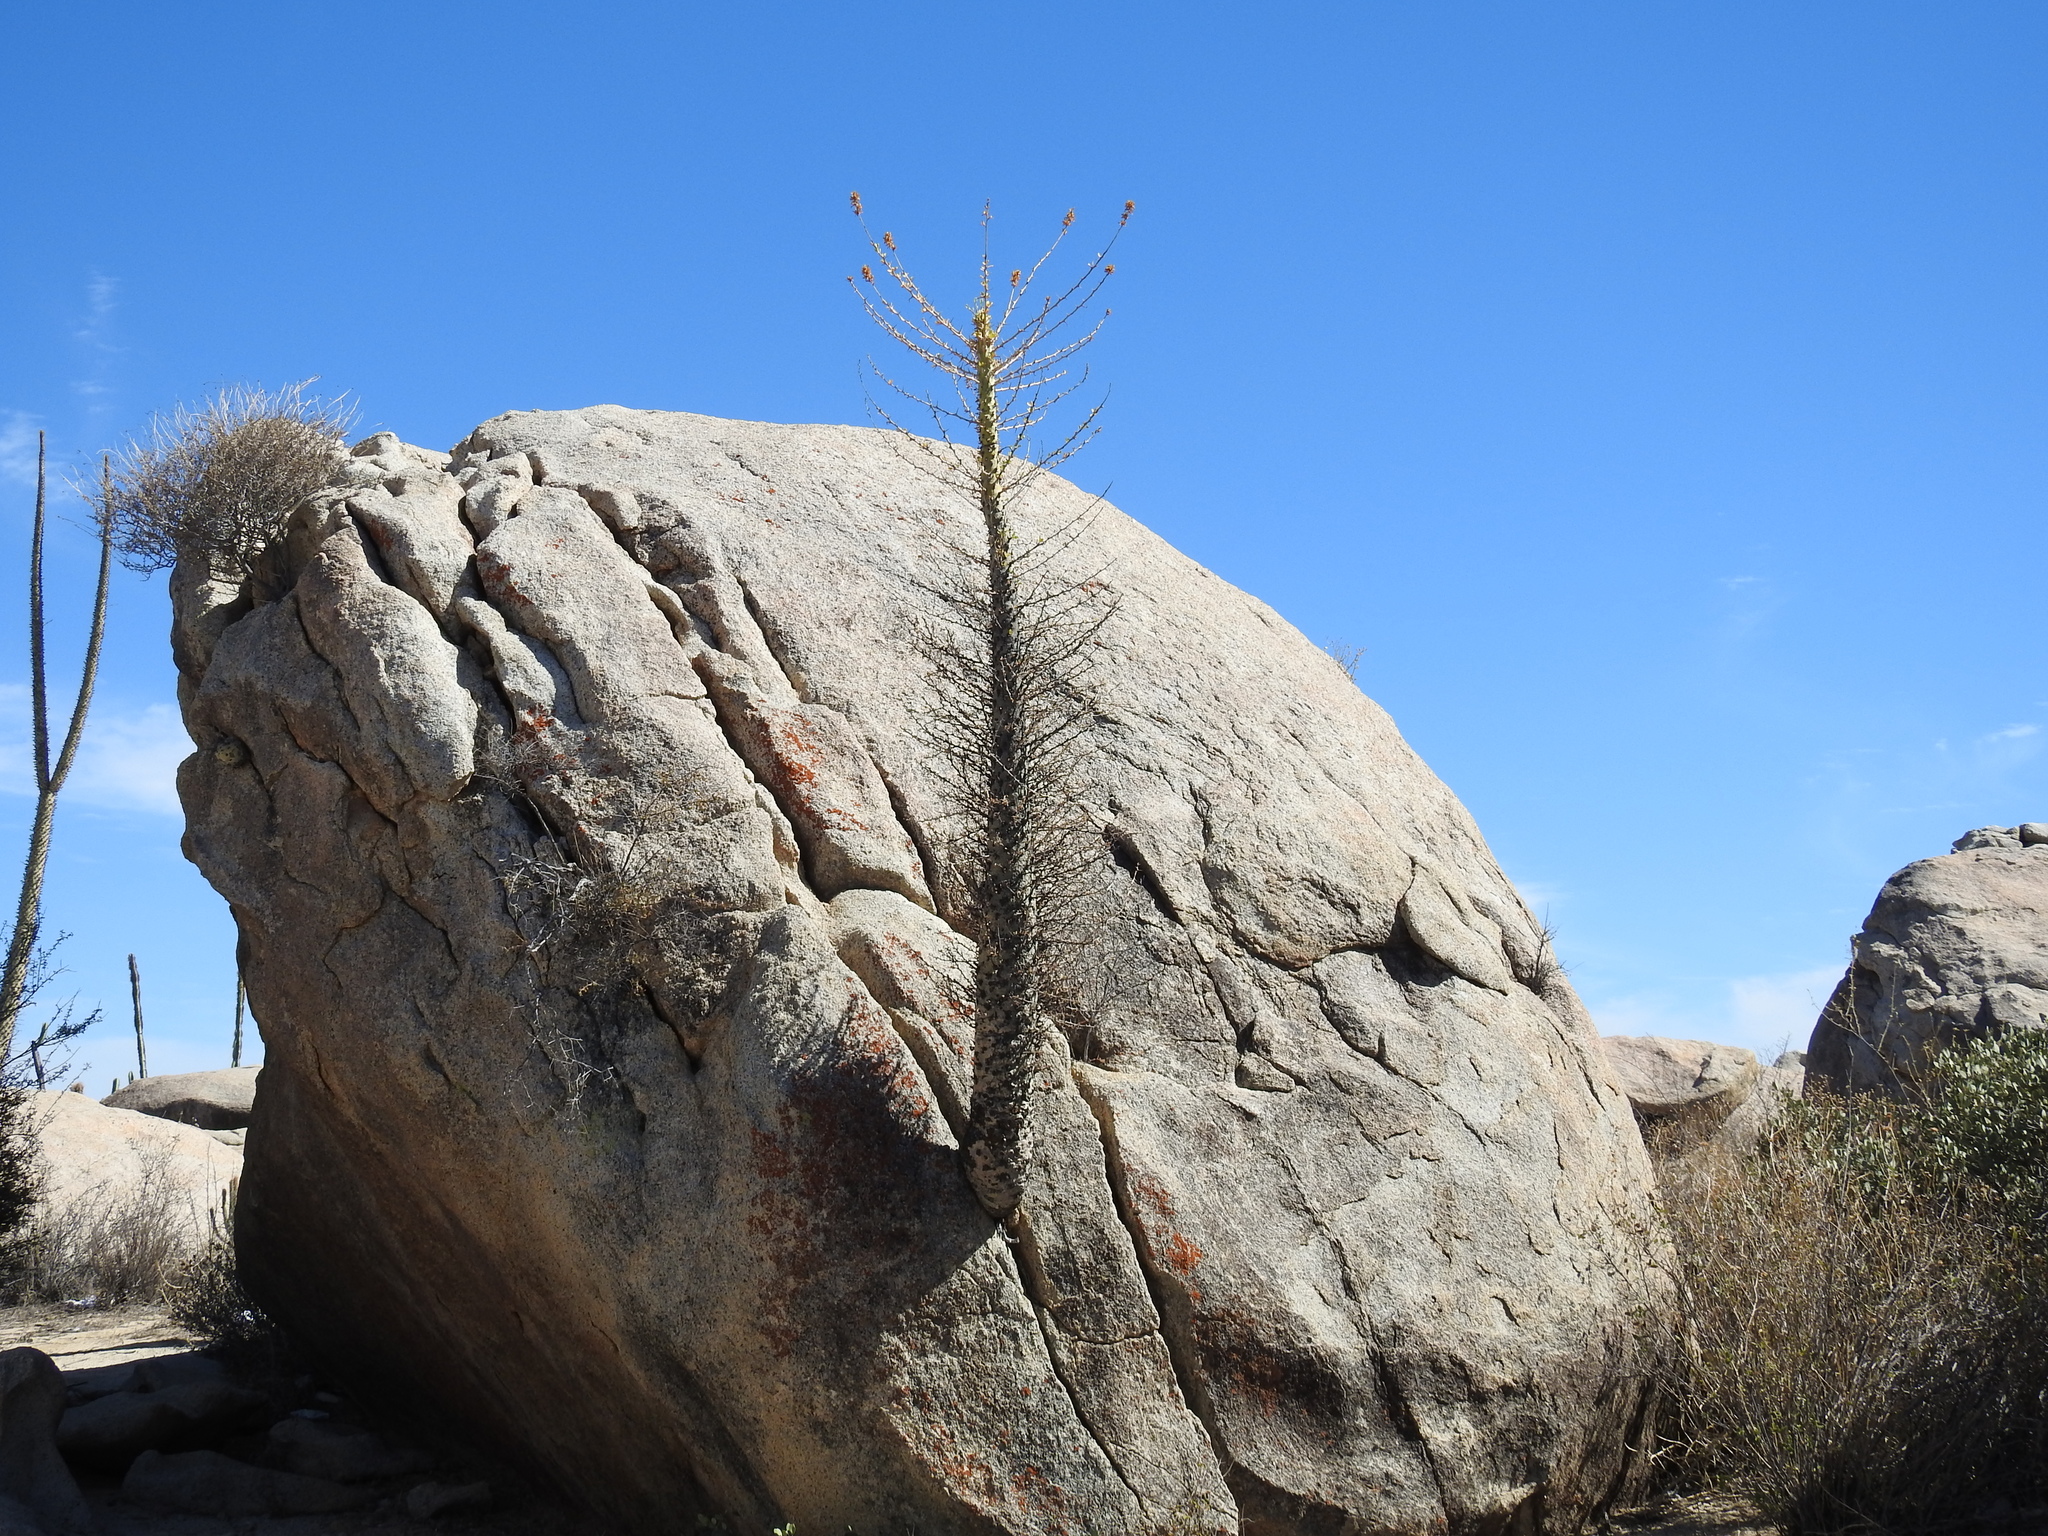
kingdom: Plantae
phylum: Tracheophyta
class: Magnoliopsida
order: Ericales
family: Fouquieriaceae
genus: Fouquieria
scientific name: Fouquieria columnaris
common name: Boojumtree
